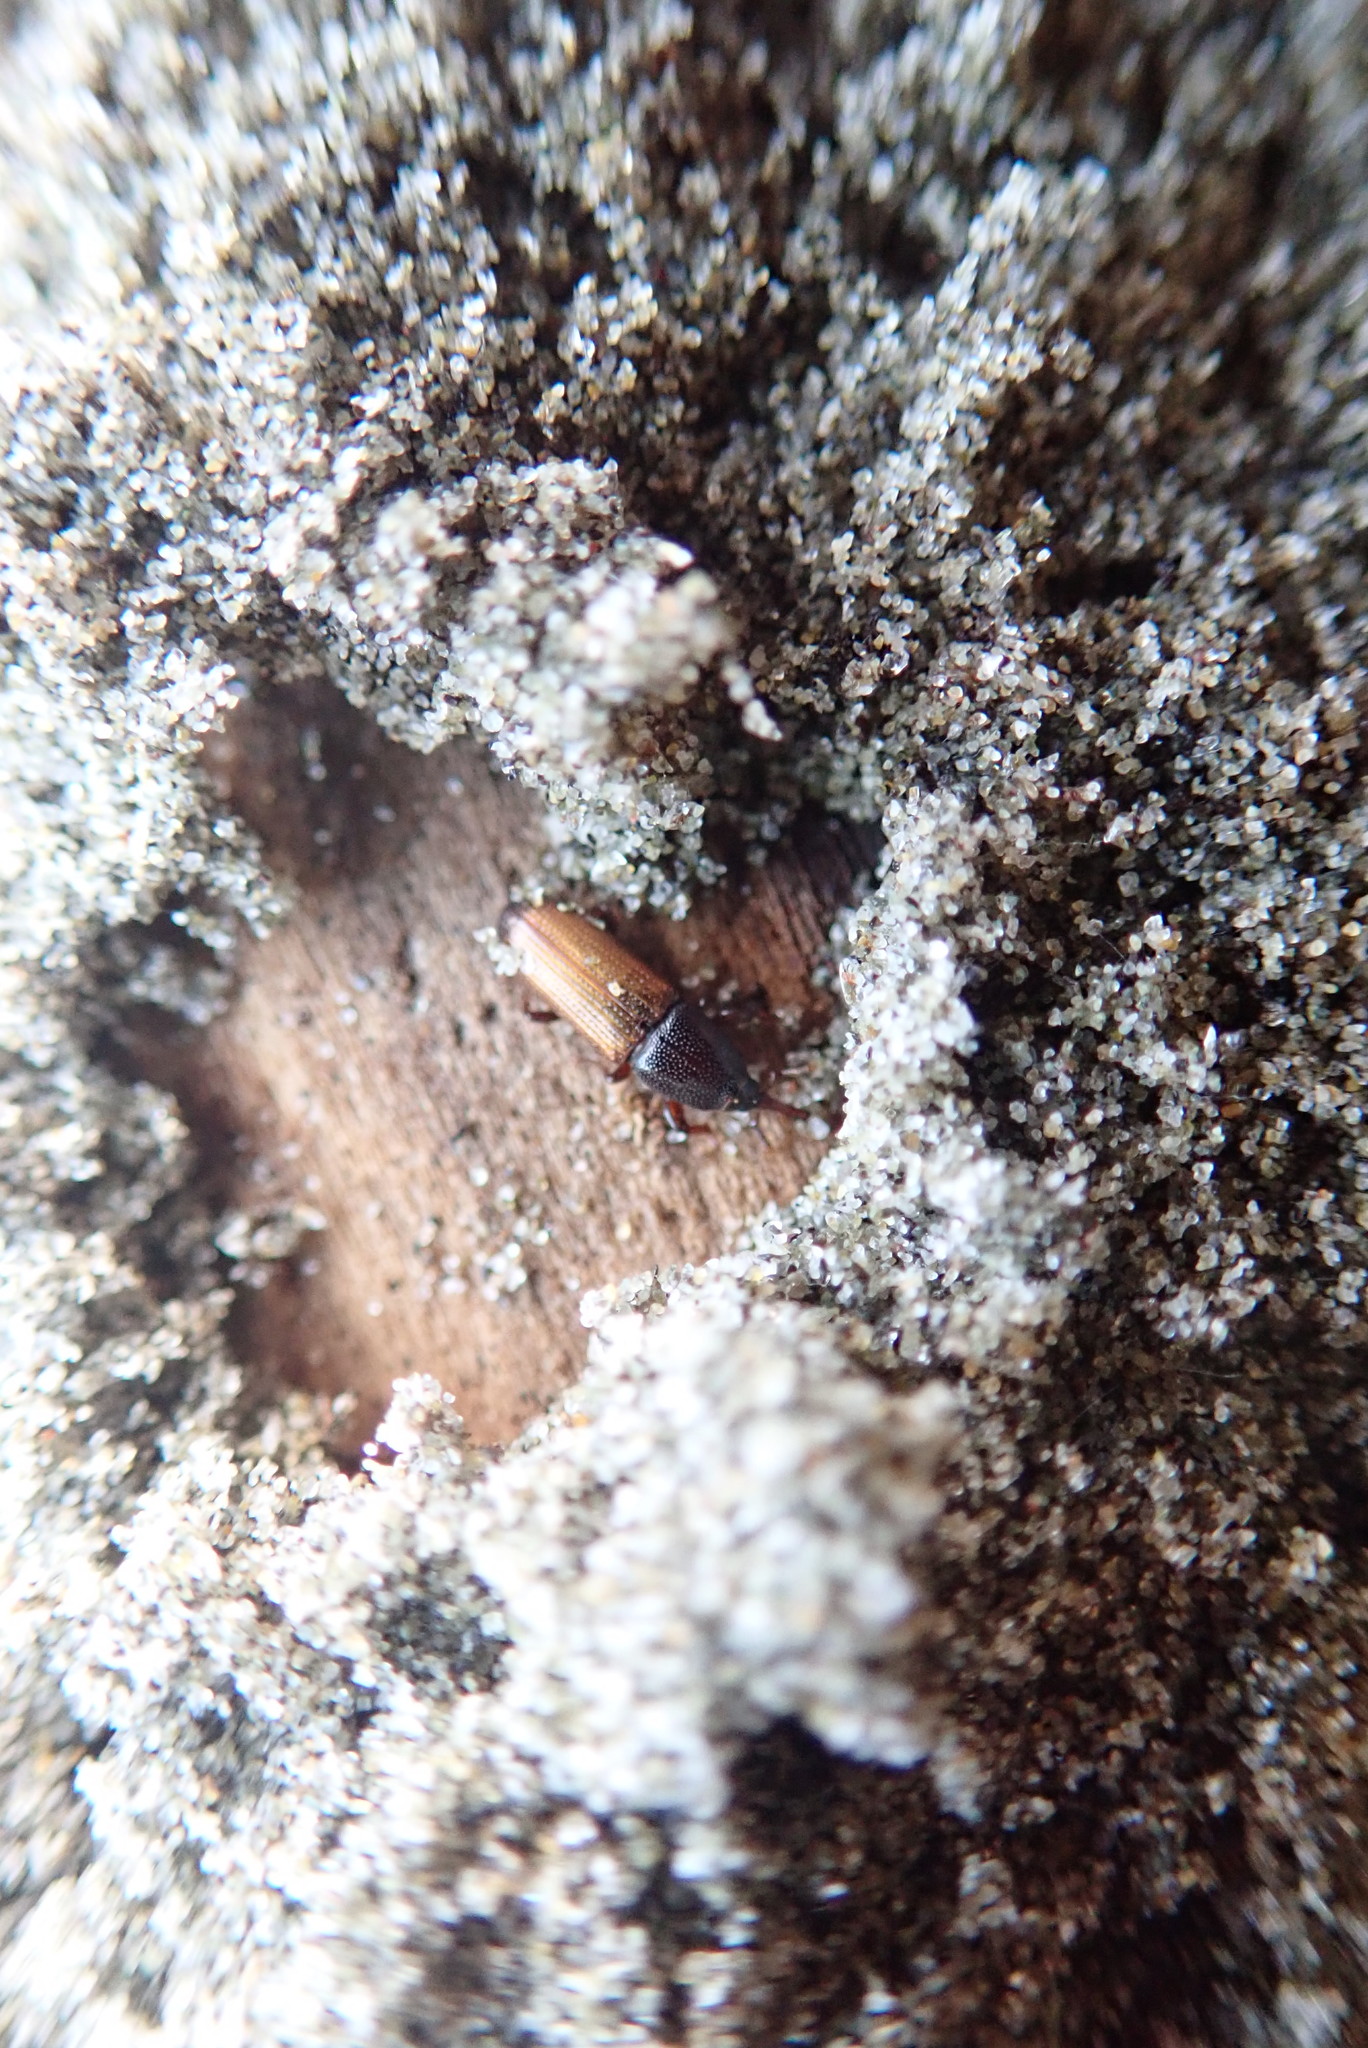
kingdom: Animalia
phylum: Arthropoda
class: Insecta
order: Coleoptera
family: Curculionidae
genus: Mesites
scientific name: Mesites pallidipennis
